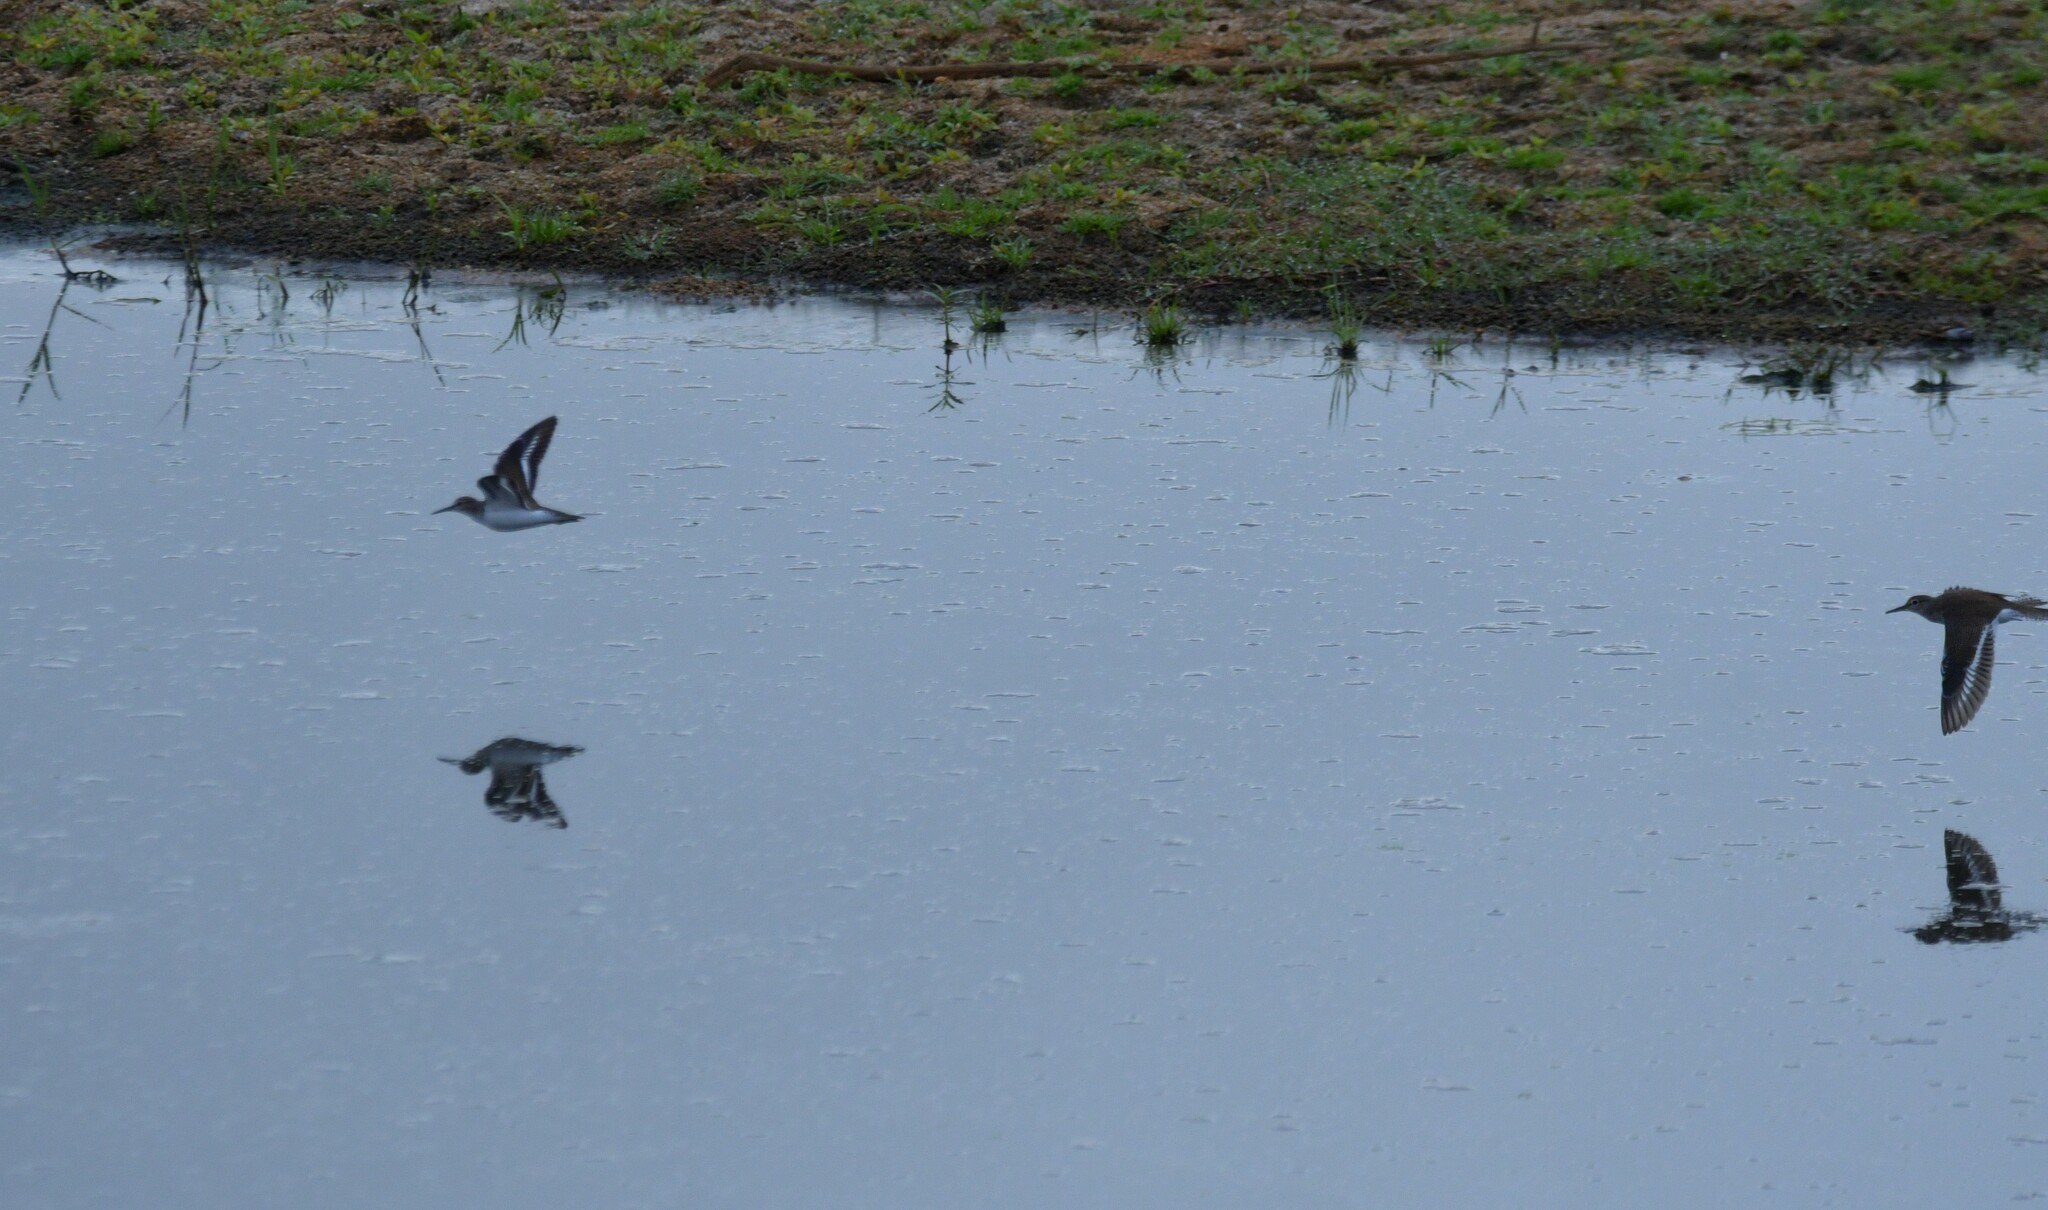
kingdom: Animalia
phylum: Chordata
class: Aves
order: Charadriiformes
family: Scolopacidae
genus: Actitis
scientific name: Actitis hypoleucos
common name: Common sandpiper
